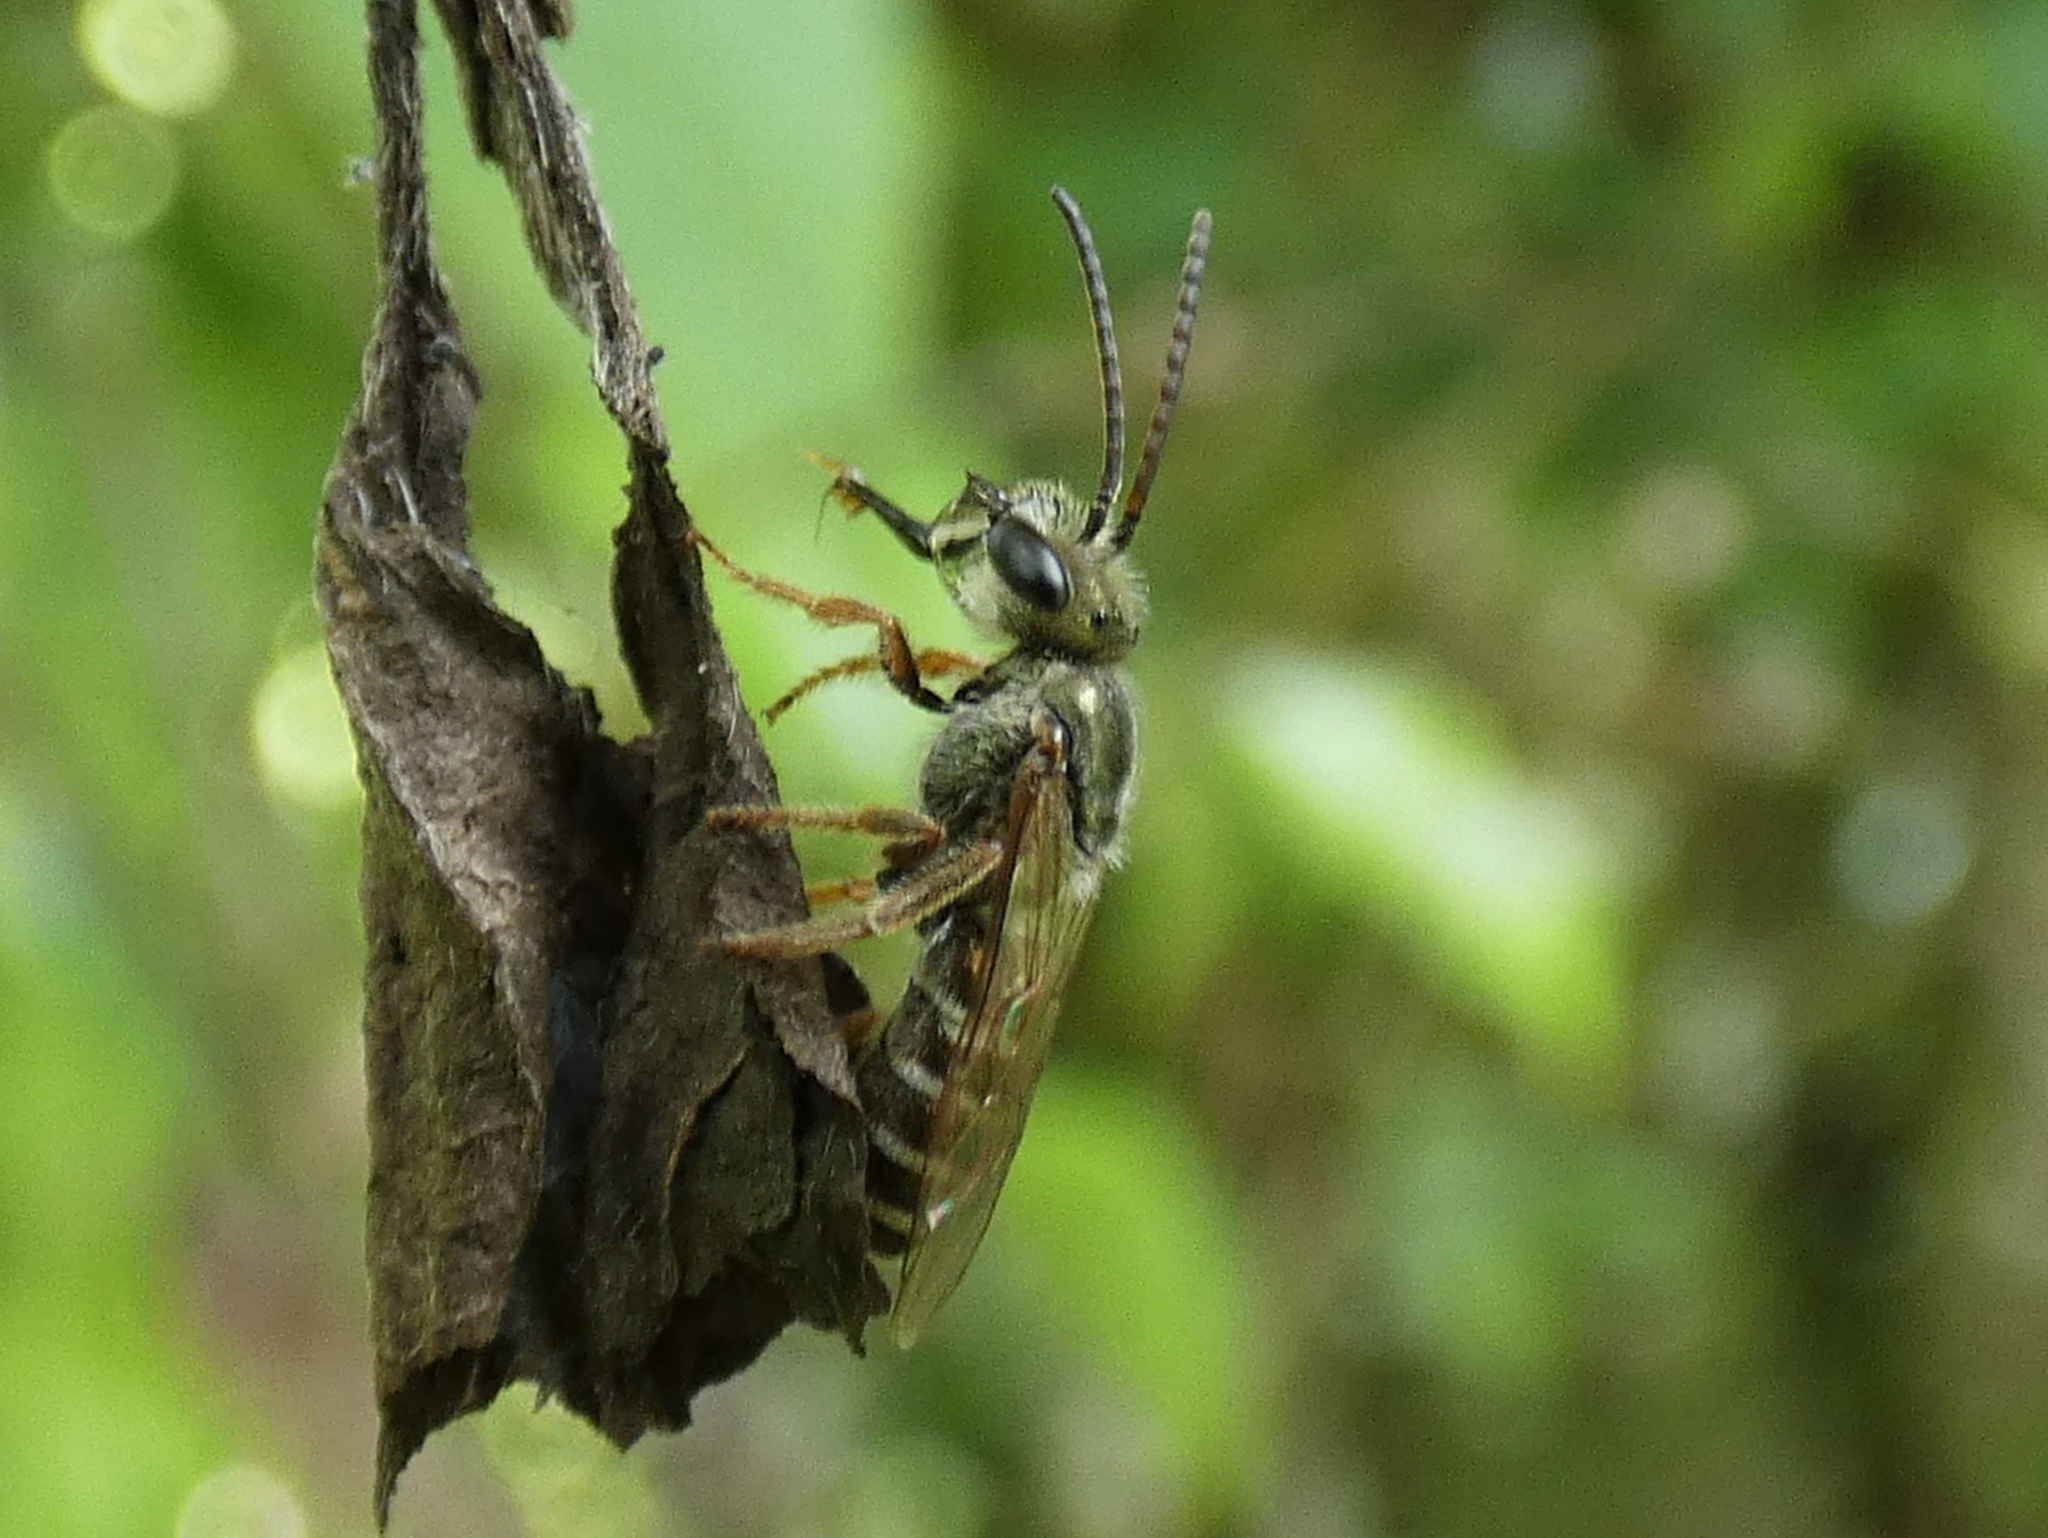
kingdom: Animalia
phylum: Arthropoda
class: Insecta
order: Hymenoptera
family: Halictidae
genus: Halictus
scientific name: Halictus hesperus
